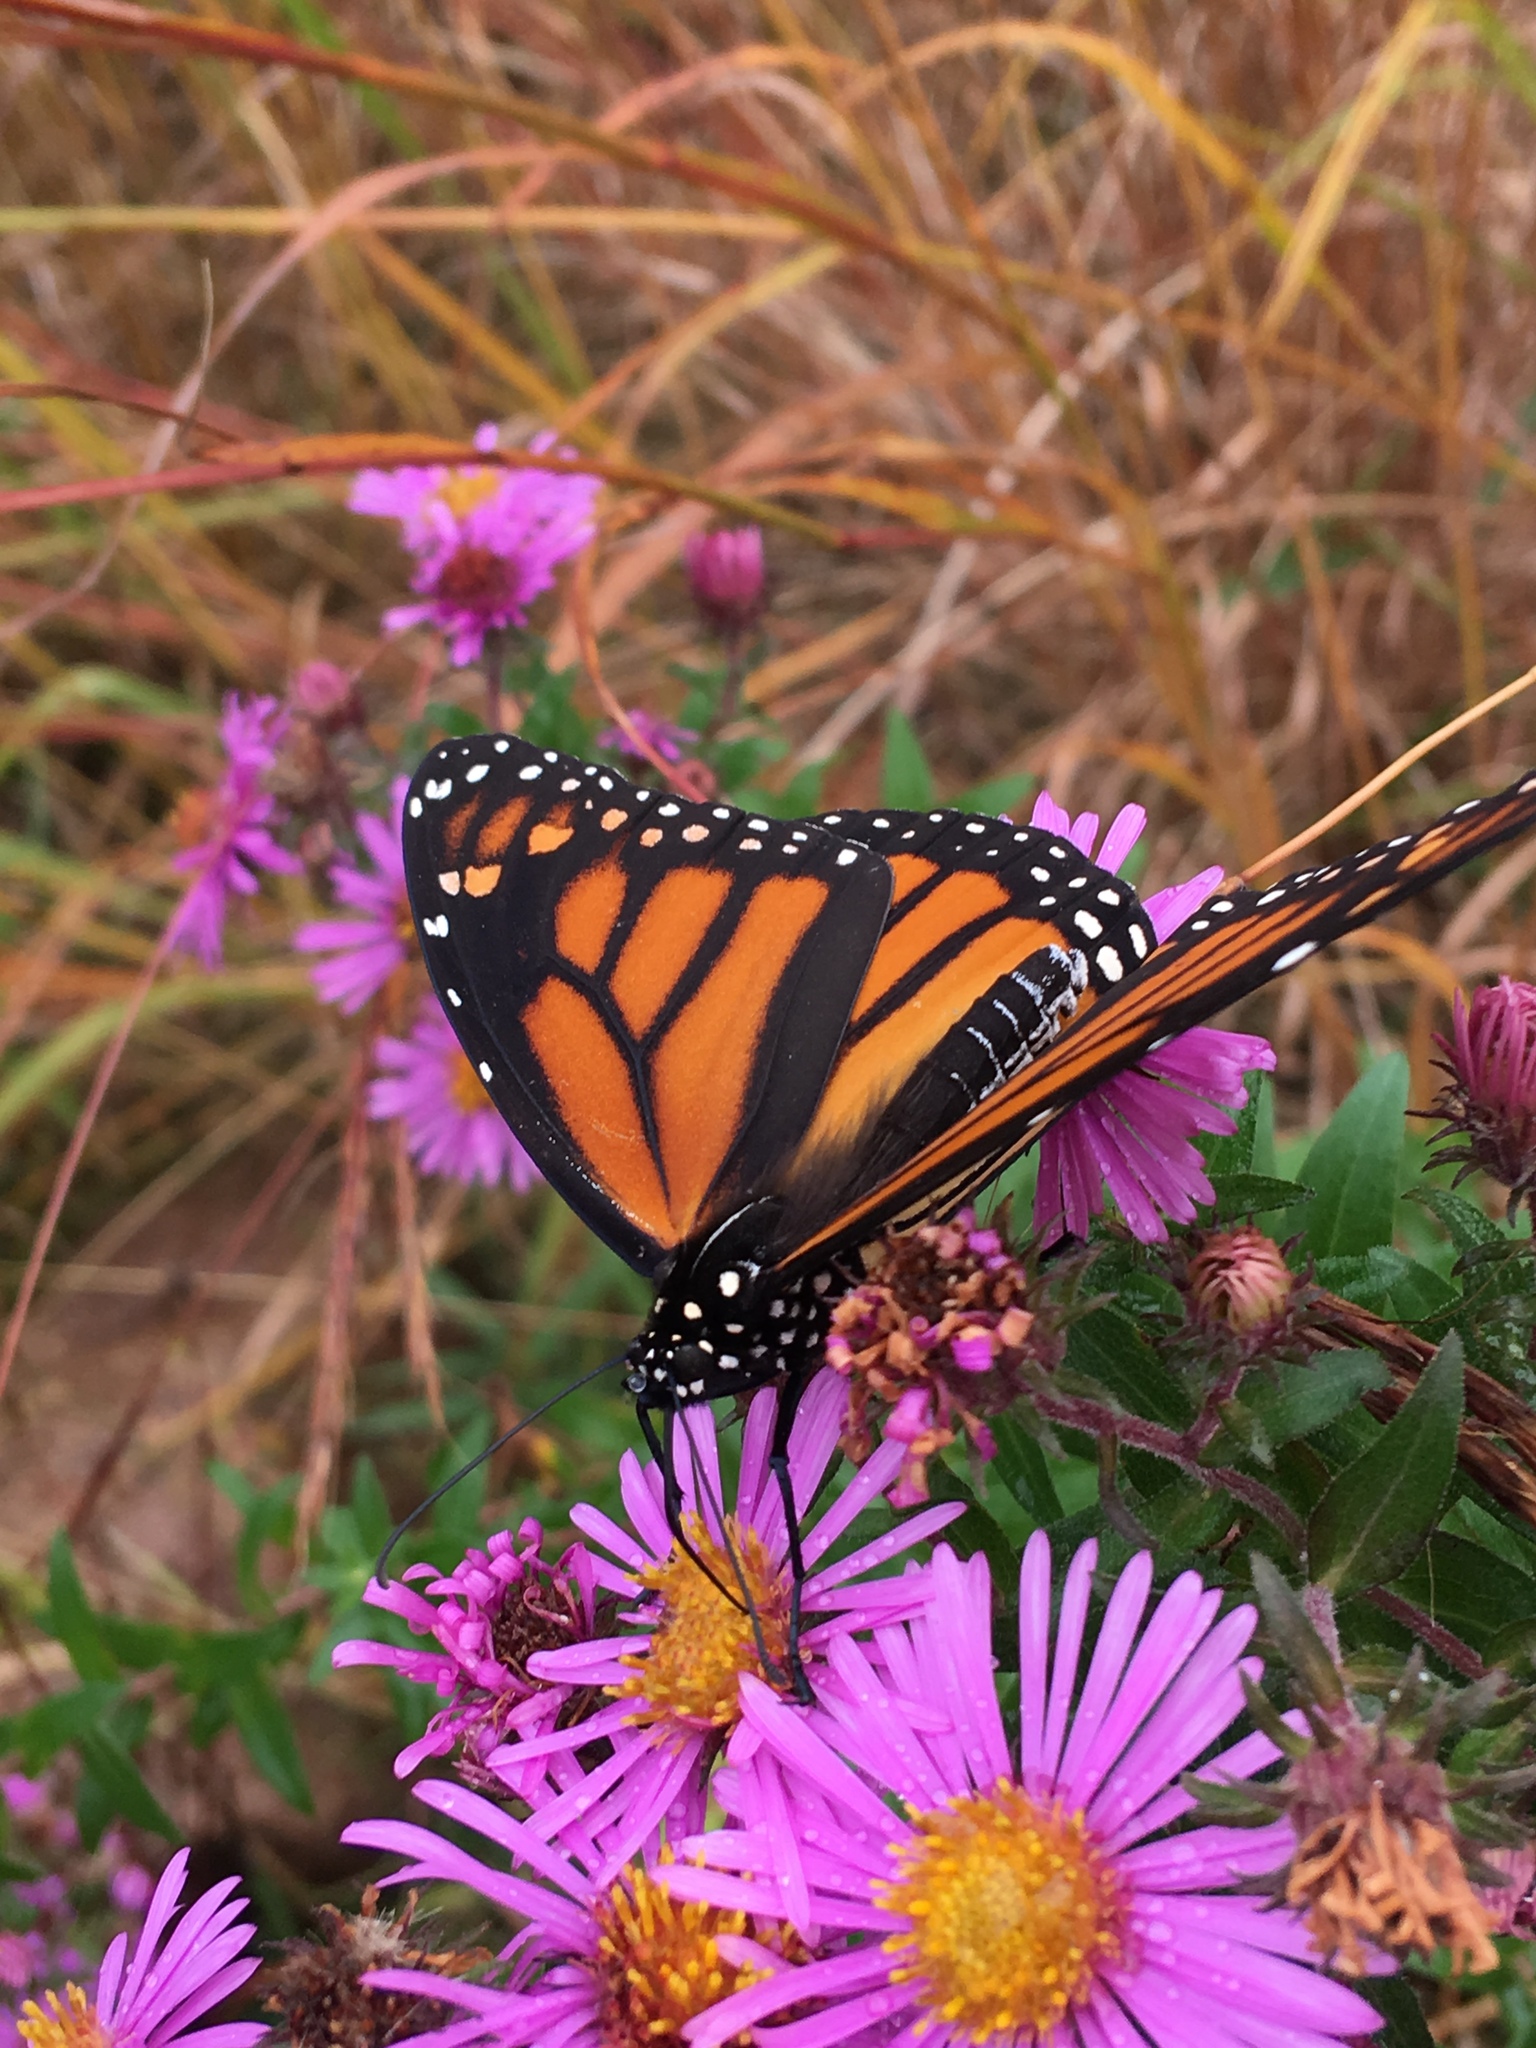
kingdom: Animalia
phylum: Arthropoda
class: Insecta
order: Lepidoptera
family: Nymphalidae
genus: Danaus
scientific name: Danaus plexippus
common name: Monarch
